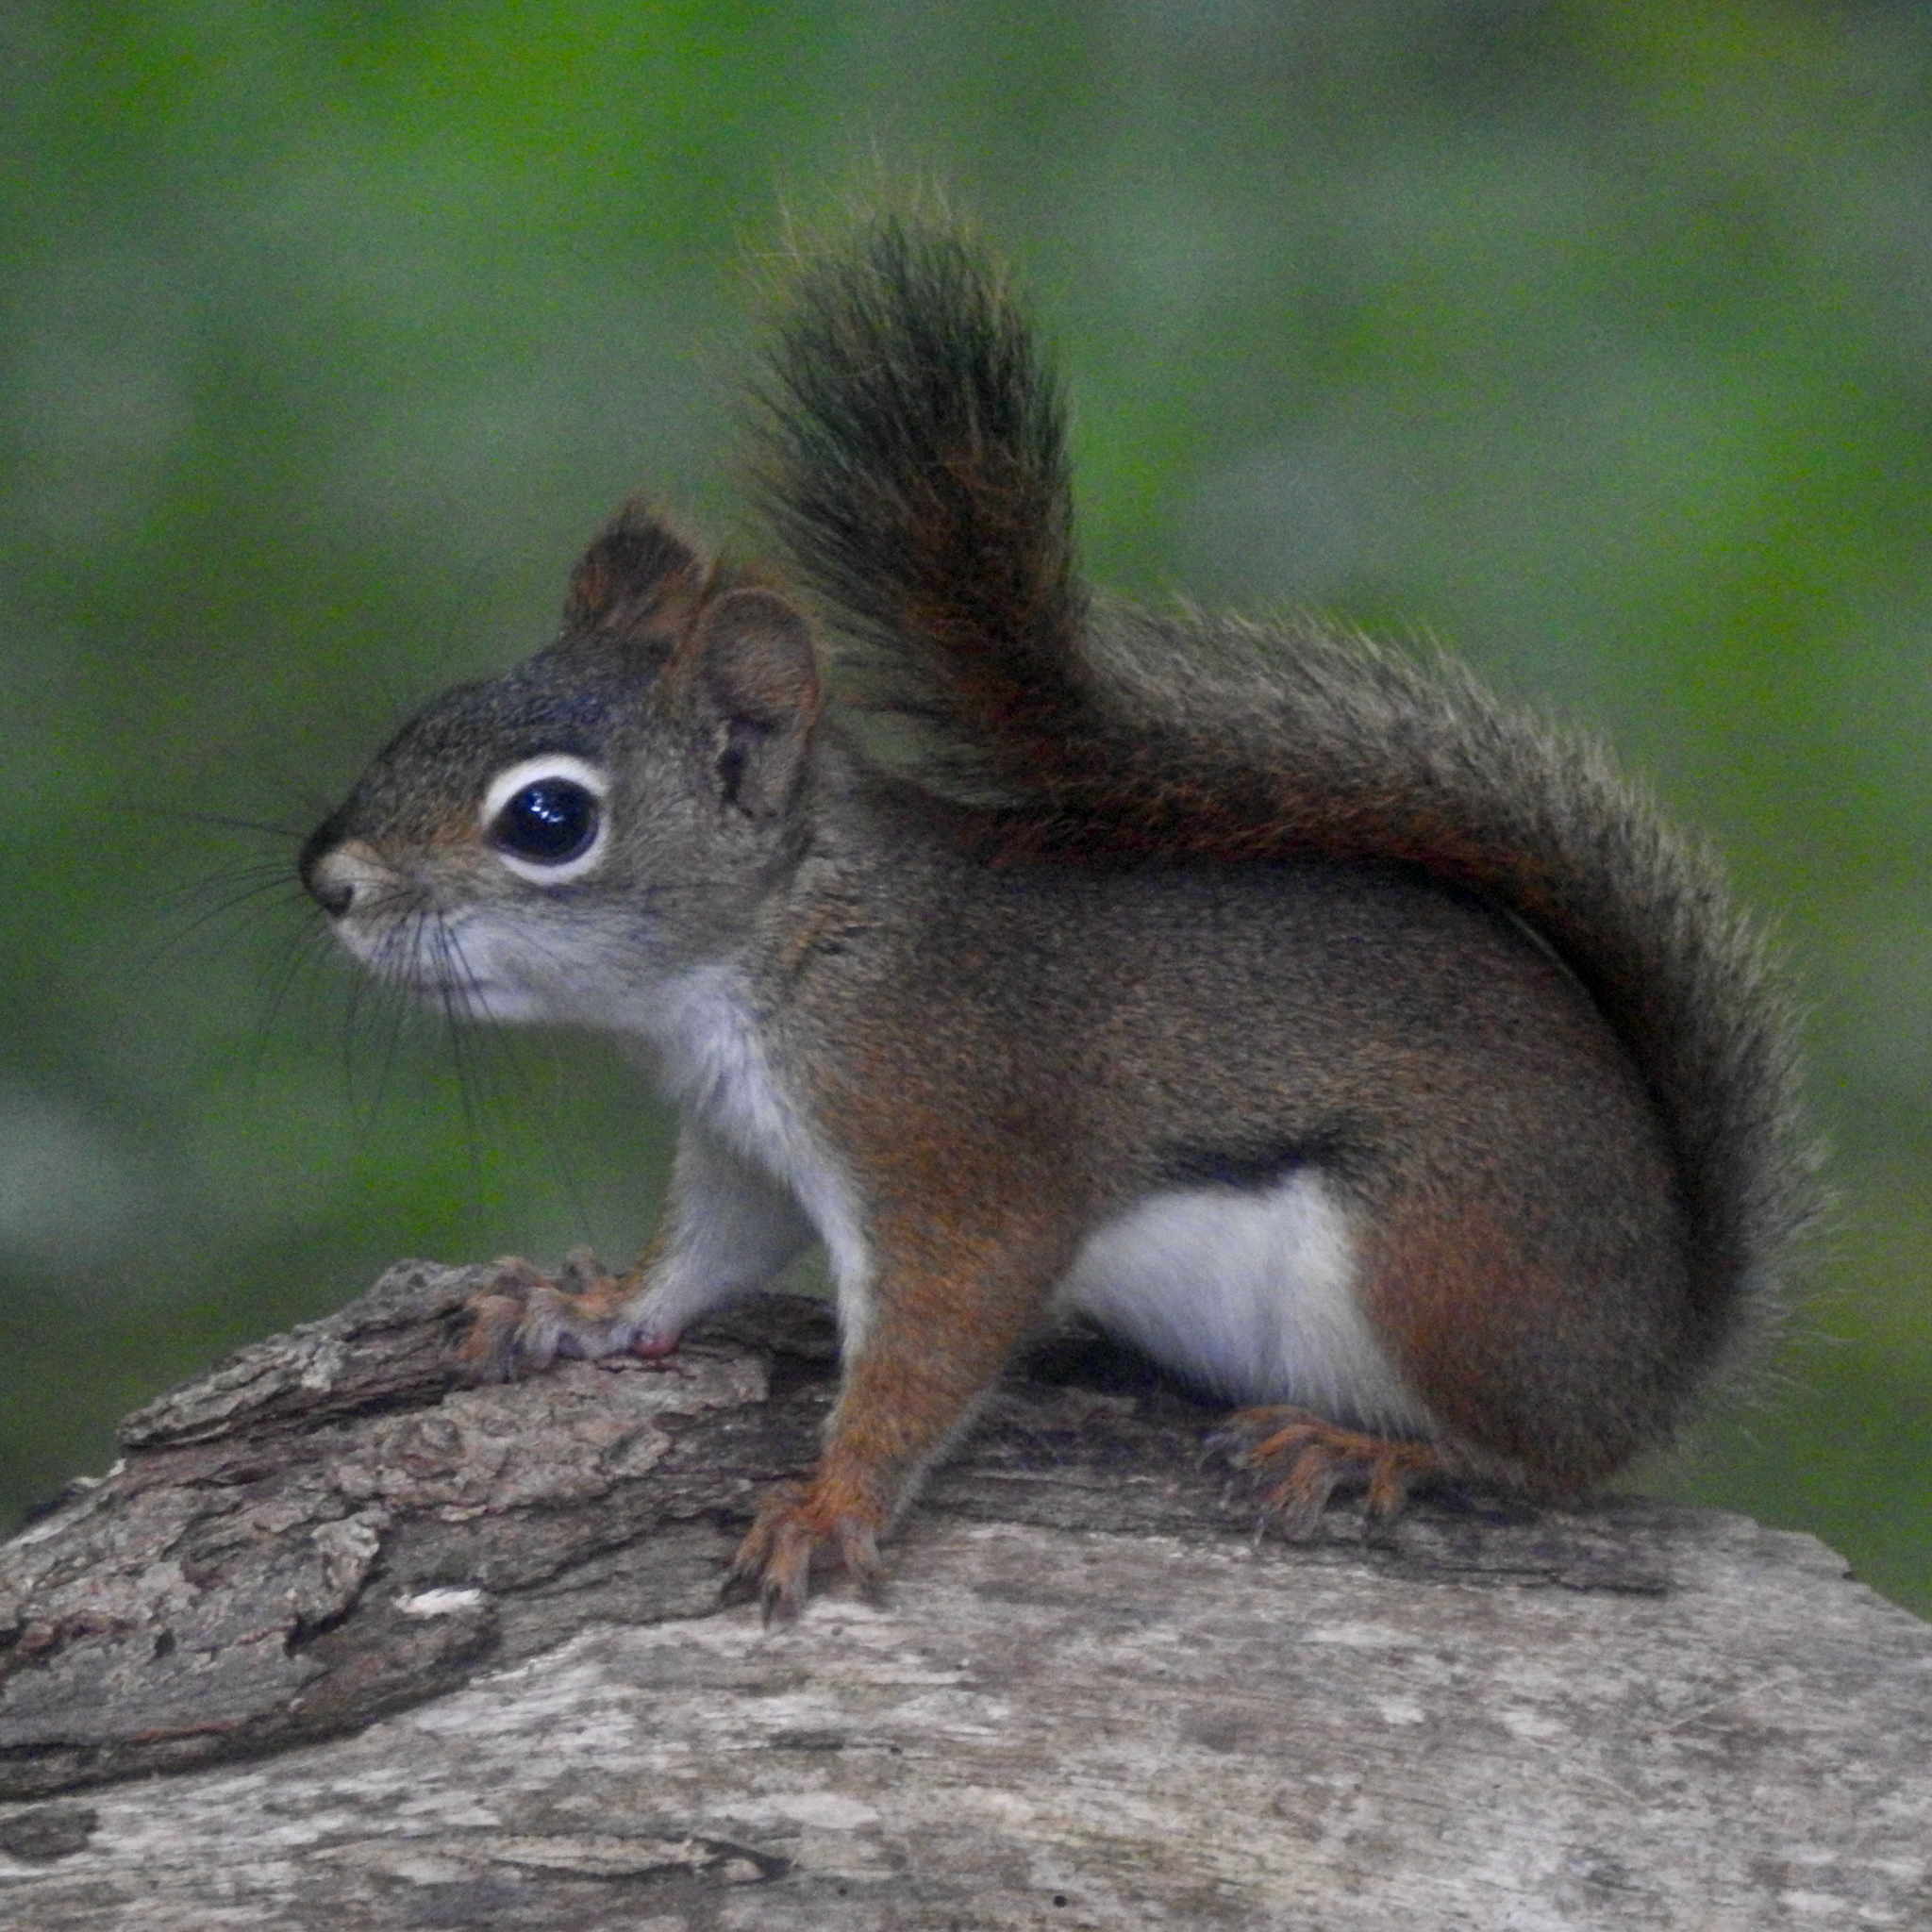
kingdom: Animalia
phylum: Chordata
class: Mammalia
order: Rodentia
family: Sciuridae
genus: Tamiasciurus
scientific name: Tamiasciurus hudsonicus
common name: Red squirrel
